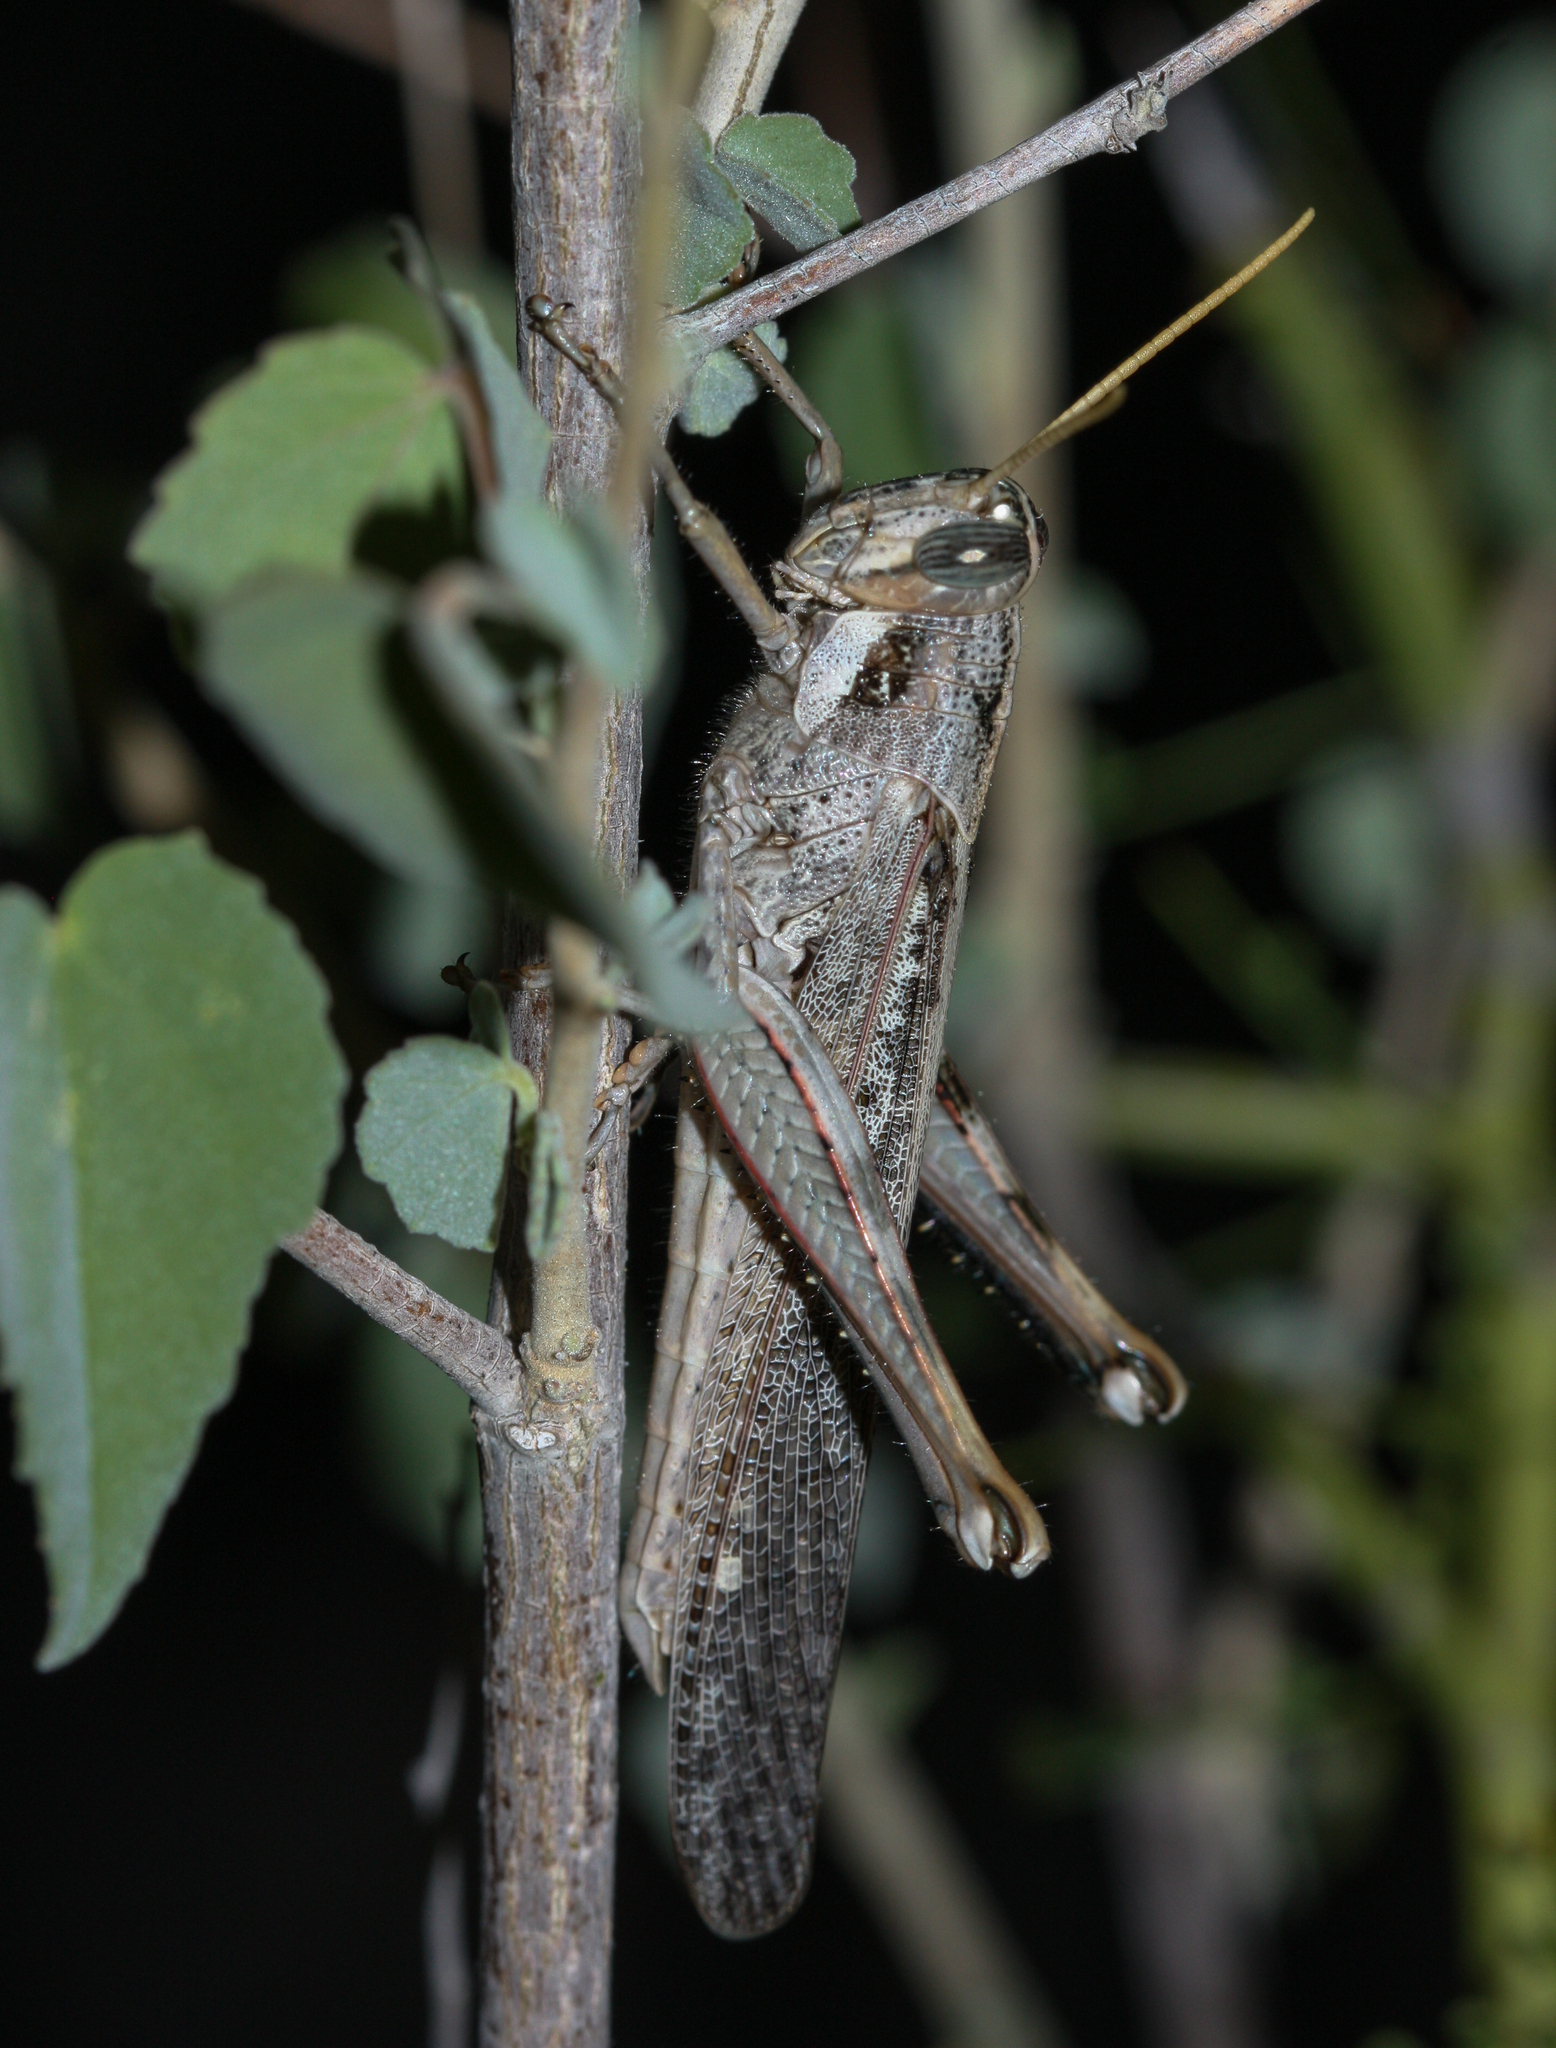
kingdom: Animalia
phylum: Arthropoda
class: Insecta
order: Orthoptera
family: Acrididae
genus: Schistocerca
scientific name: Schistocerca nitens
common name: Vagrant grasshopper
